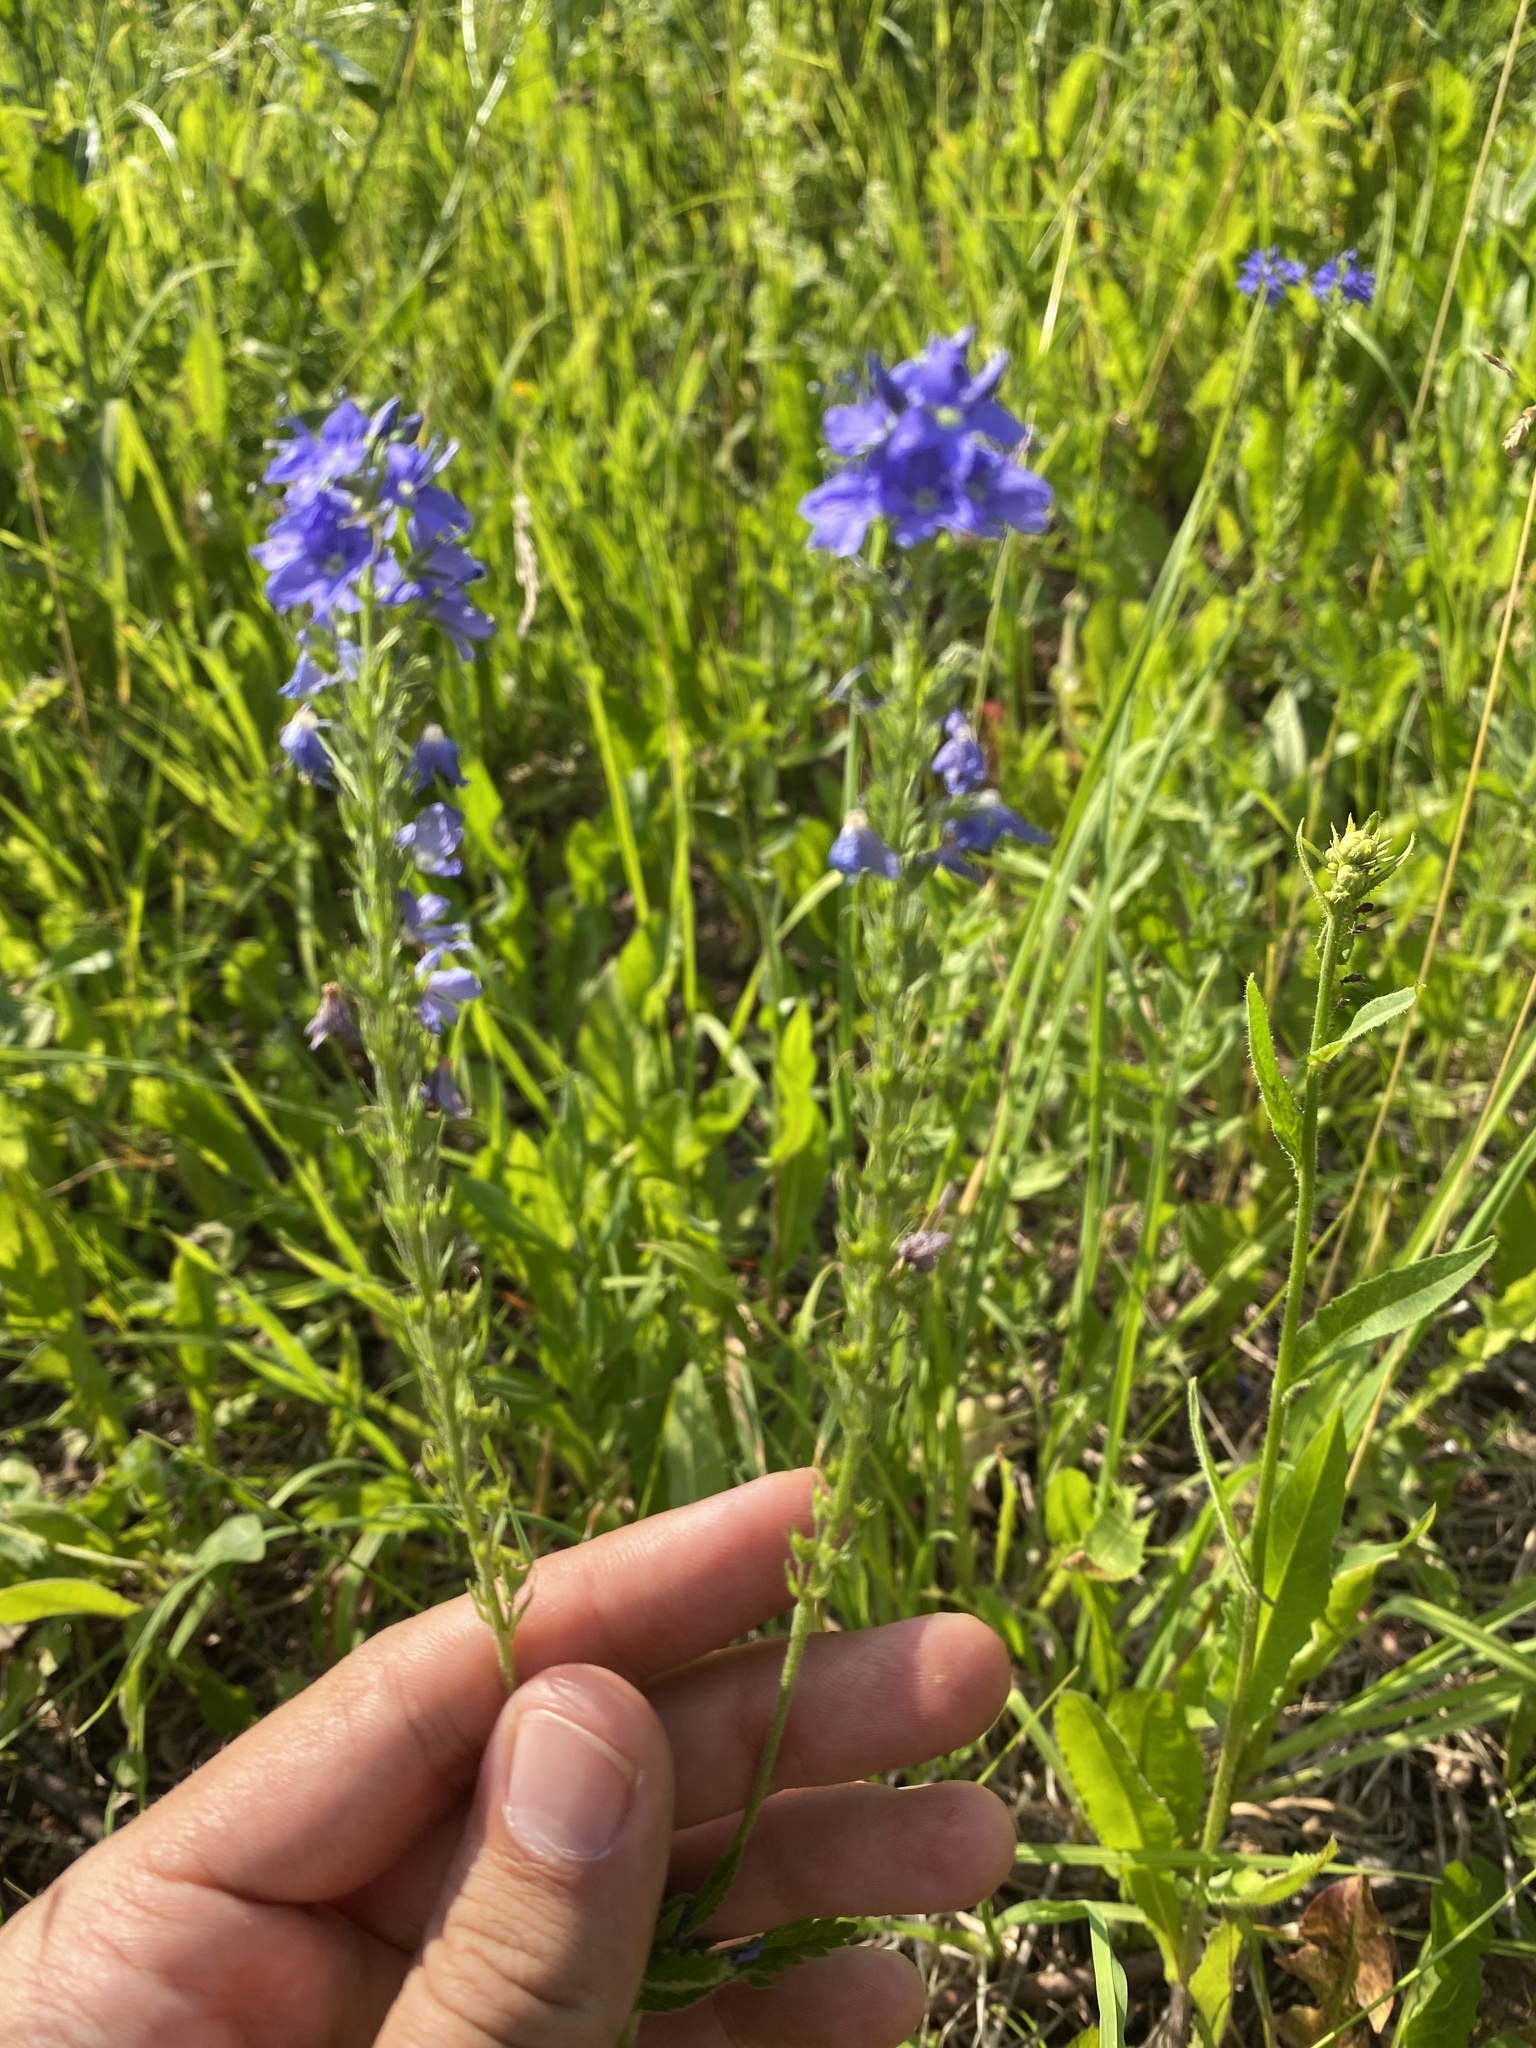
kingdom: Plantae
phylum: Tracheophyta
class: Magnoliopsida
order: Lamiales
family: Plantaginaceae
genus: Veronica
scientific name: Veronica teucrium
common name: Large speedwell
